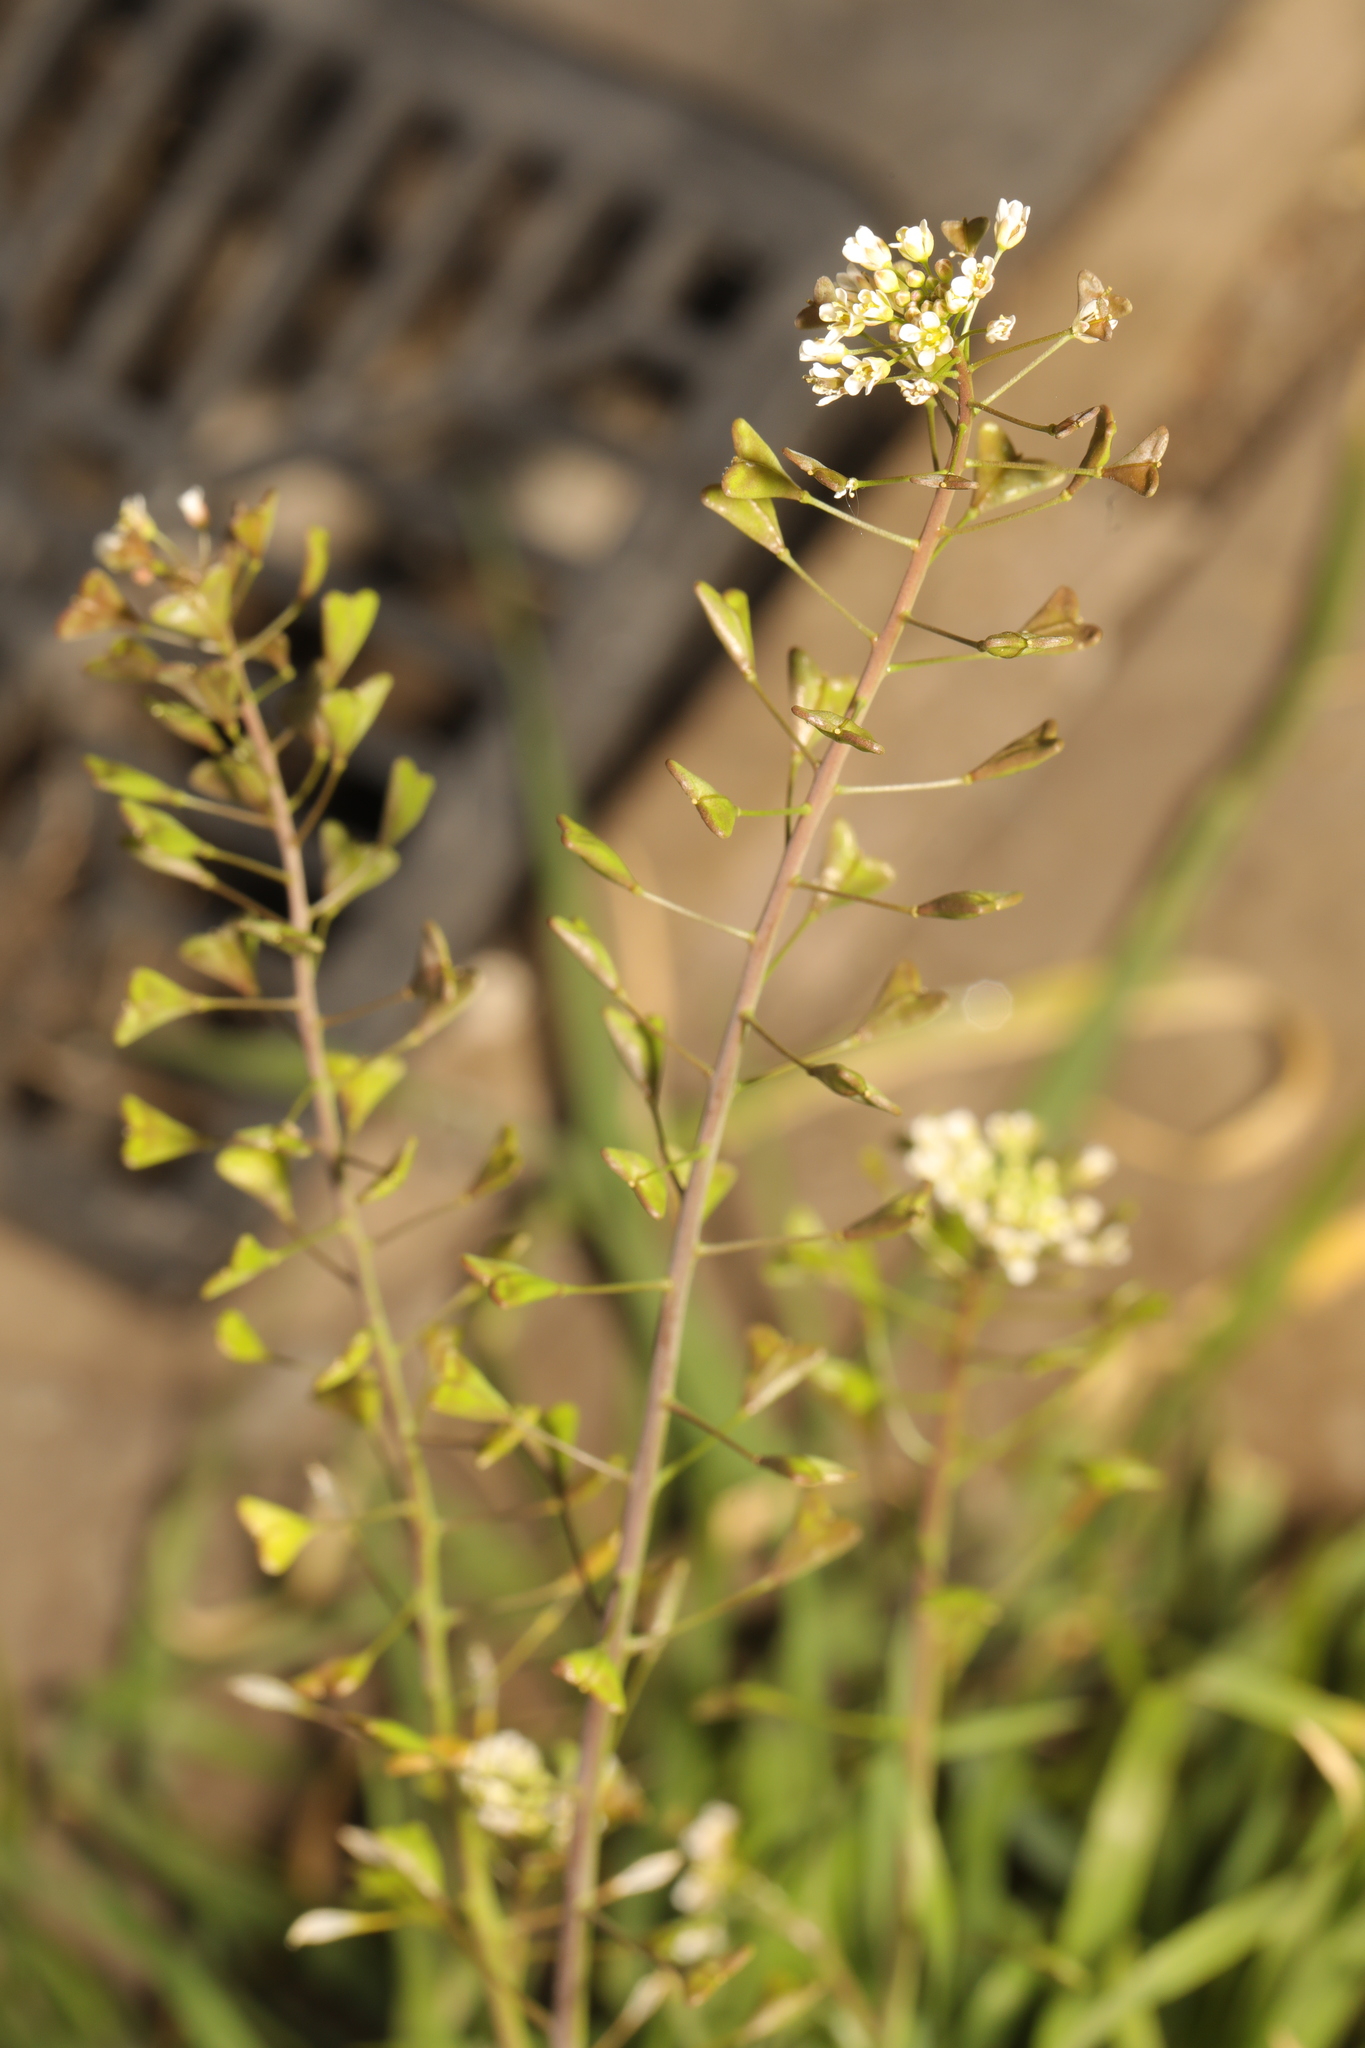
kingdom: Plantae
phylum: Tracheophyta
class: Magnoliopsida
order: Brassicales
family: Brassicaceae
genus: Capsella
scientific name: Capsella bursa-pastoris
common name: Shepherd's purse
